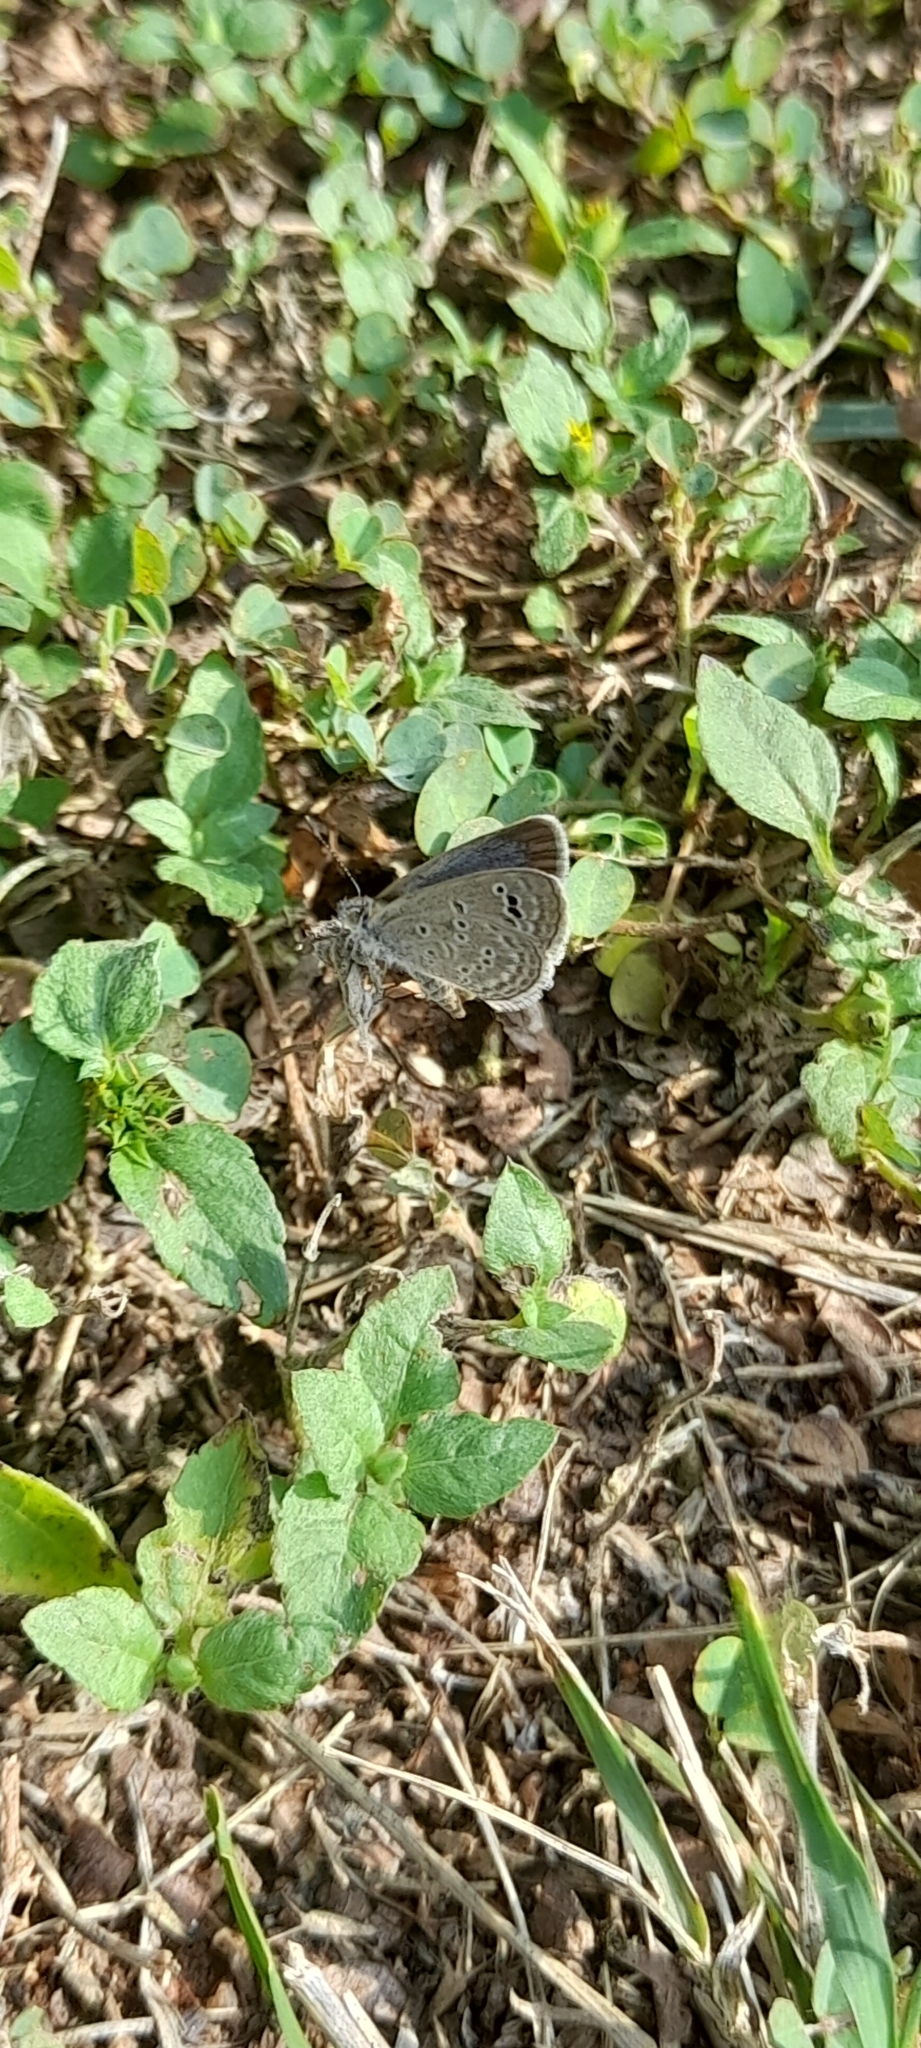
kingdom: Animalia
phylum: Arthropoda
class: Insecta
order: Lepidoptera
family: Lycaenidae
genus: Zizina
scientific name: Zizina otis
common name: Lesser grass blue
